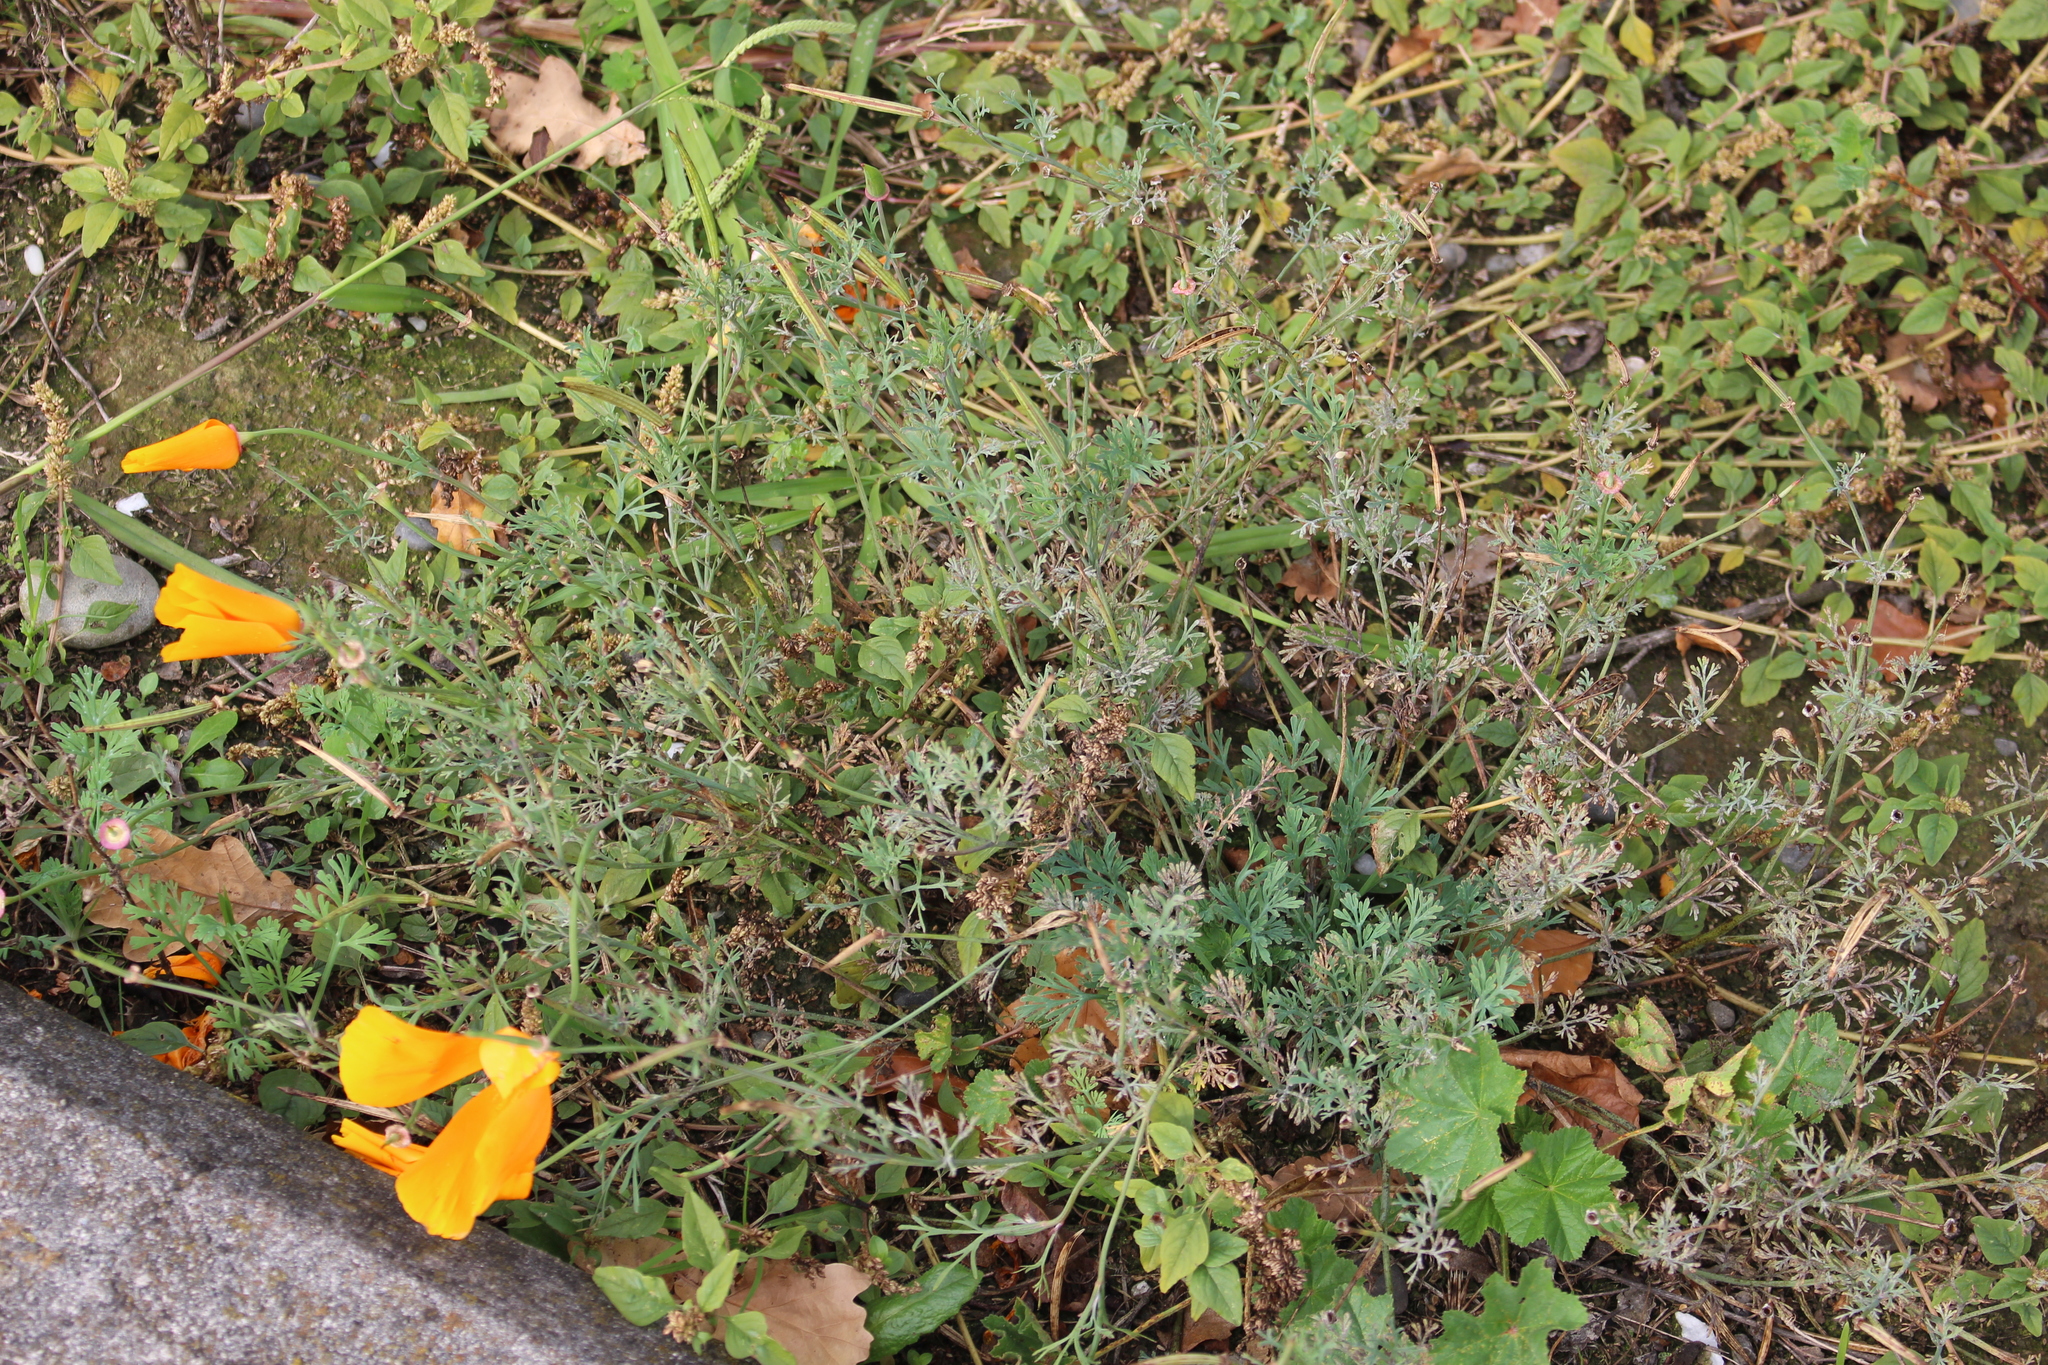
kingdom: Plantae
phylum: Tracheophyta
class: Magnoliopsida
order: Ranunculales
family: Papaveraceae
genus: Eschscholzia
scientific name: Eschscholzia californica
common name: California poppy
